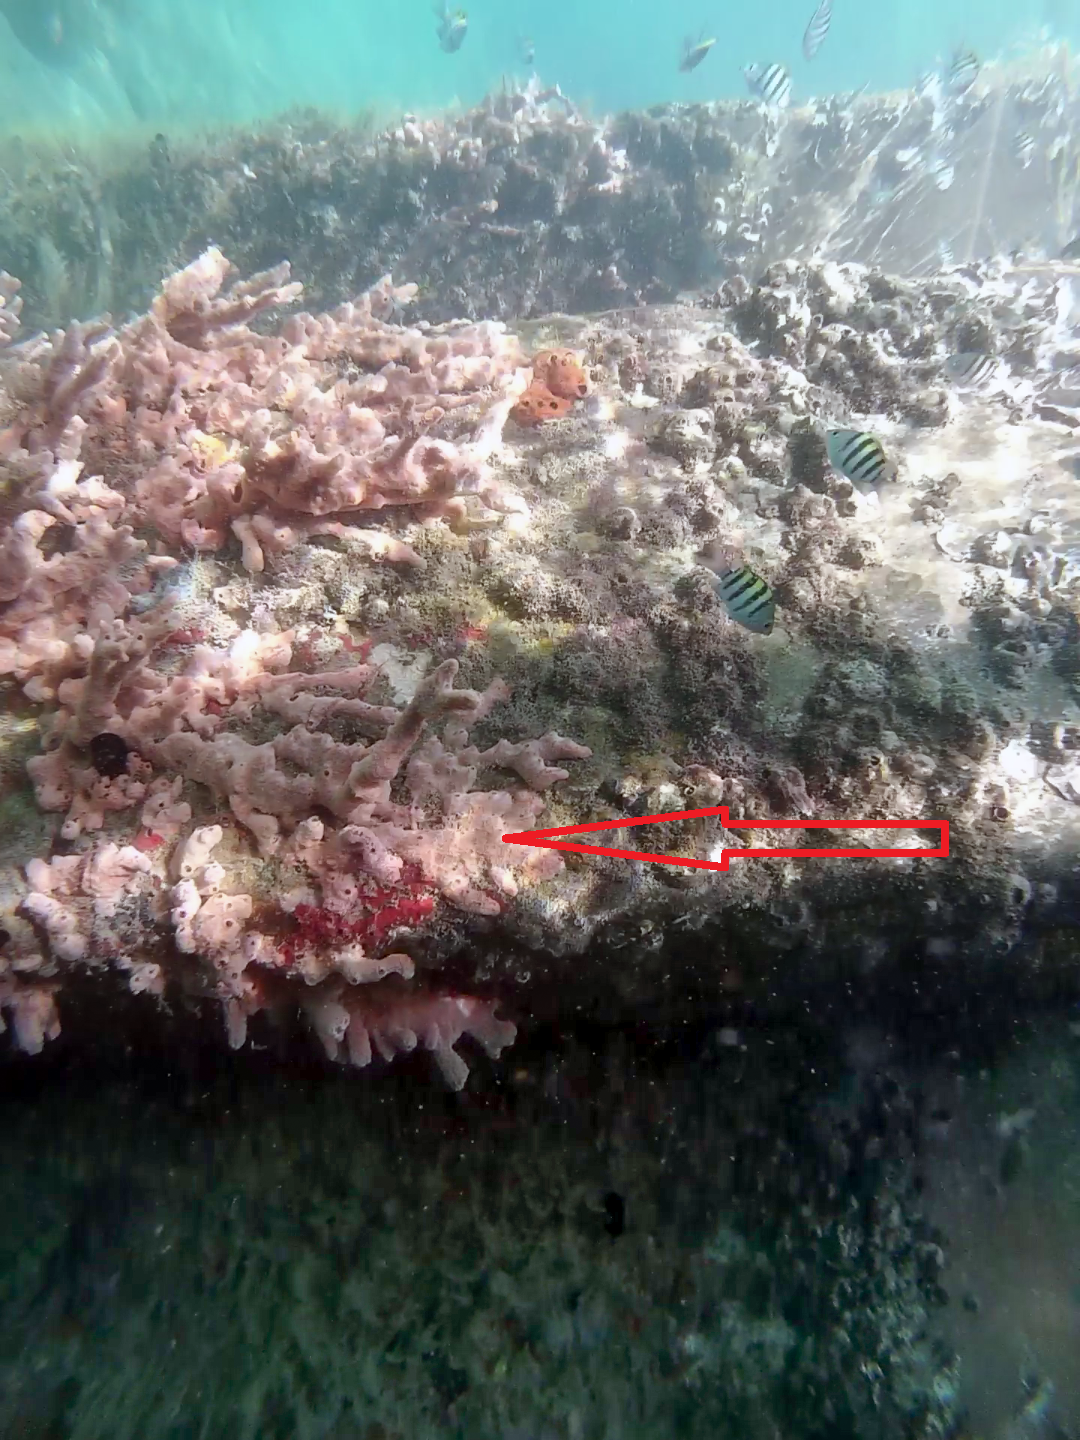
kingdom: Animalia
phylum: Porifera
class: Demospongiae
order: Poecilosclerida
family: Desmacididae
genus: Desmapsamma
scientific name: Desmapsamma anchorata
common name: Lumpy overgrowing sponge
